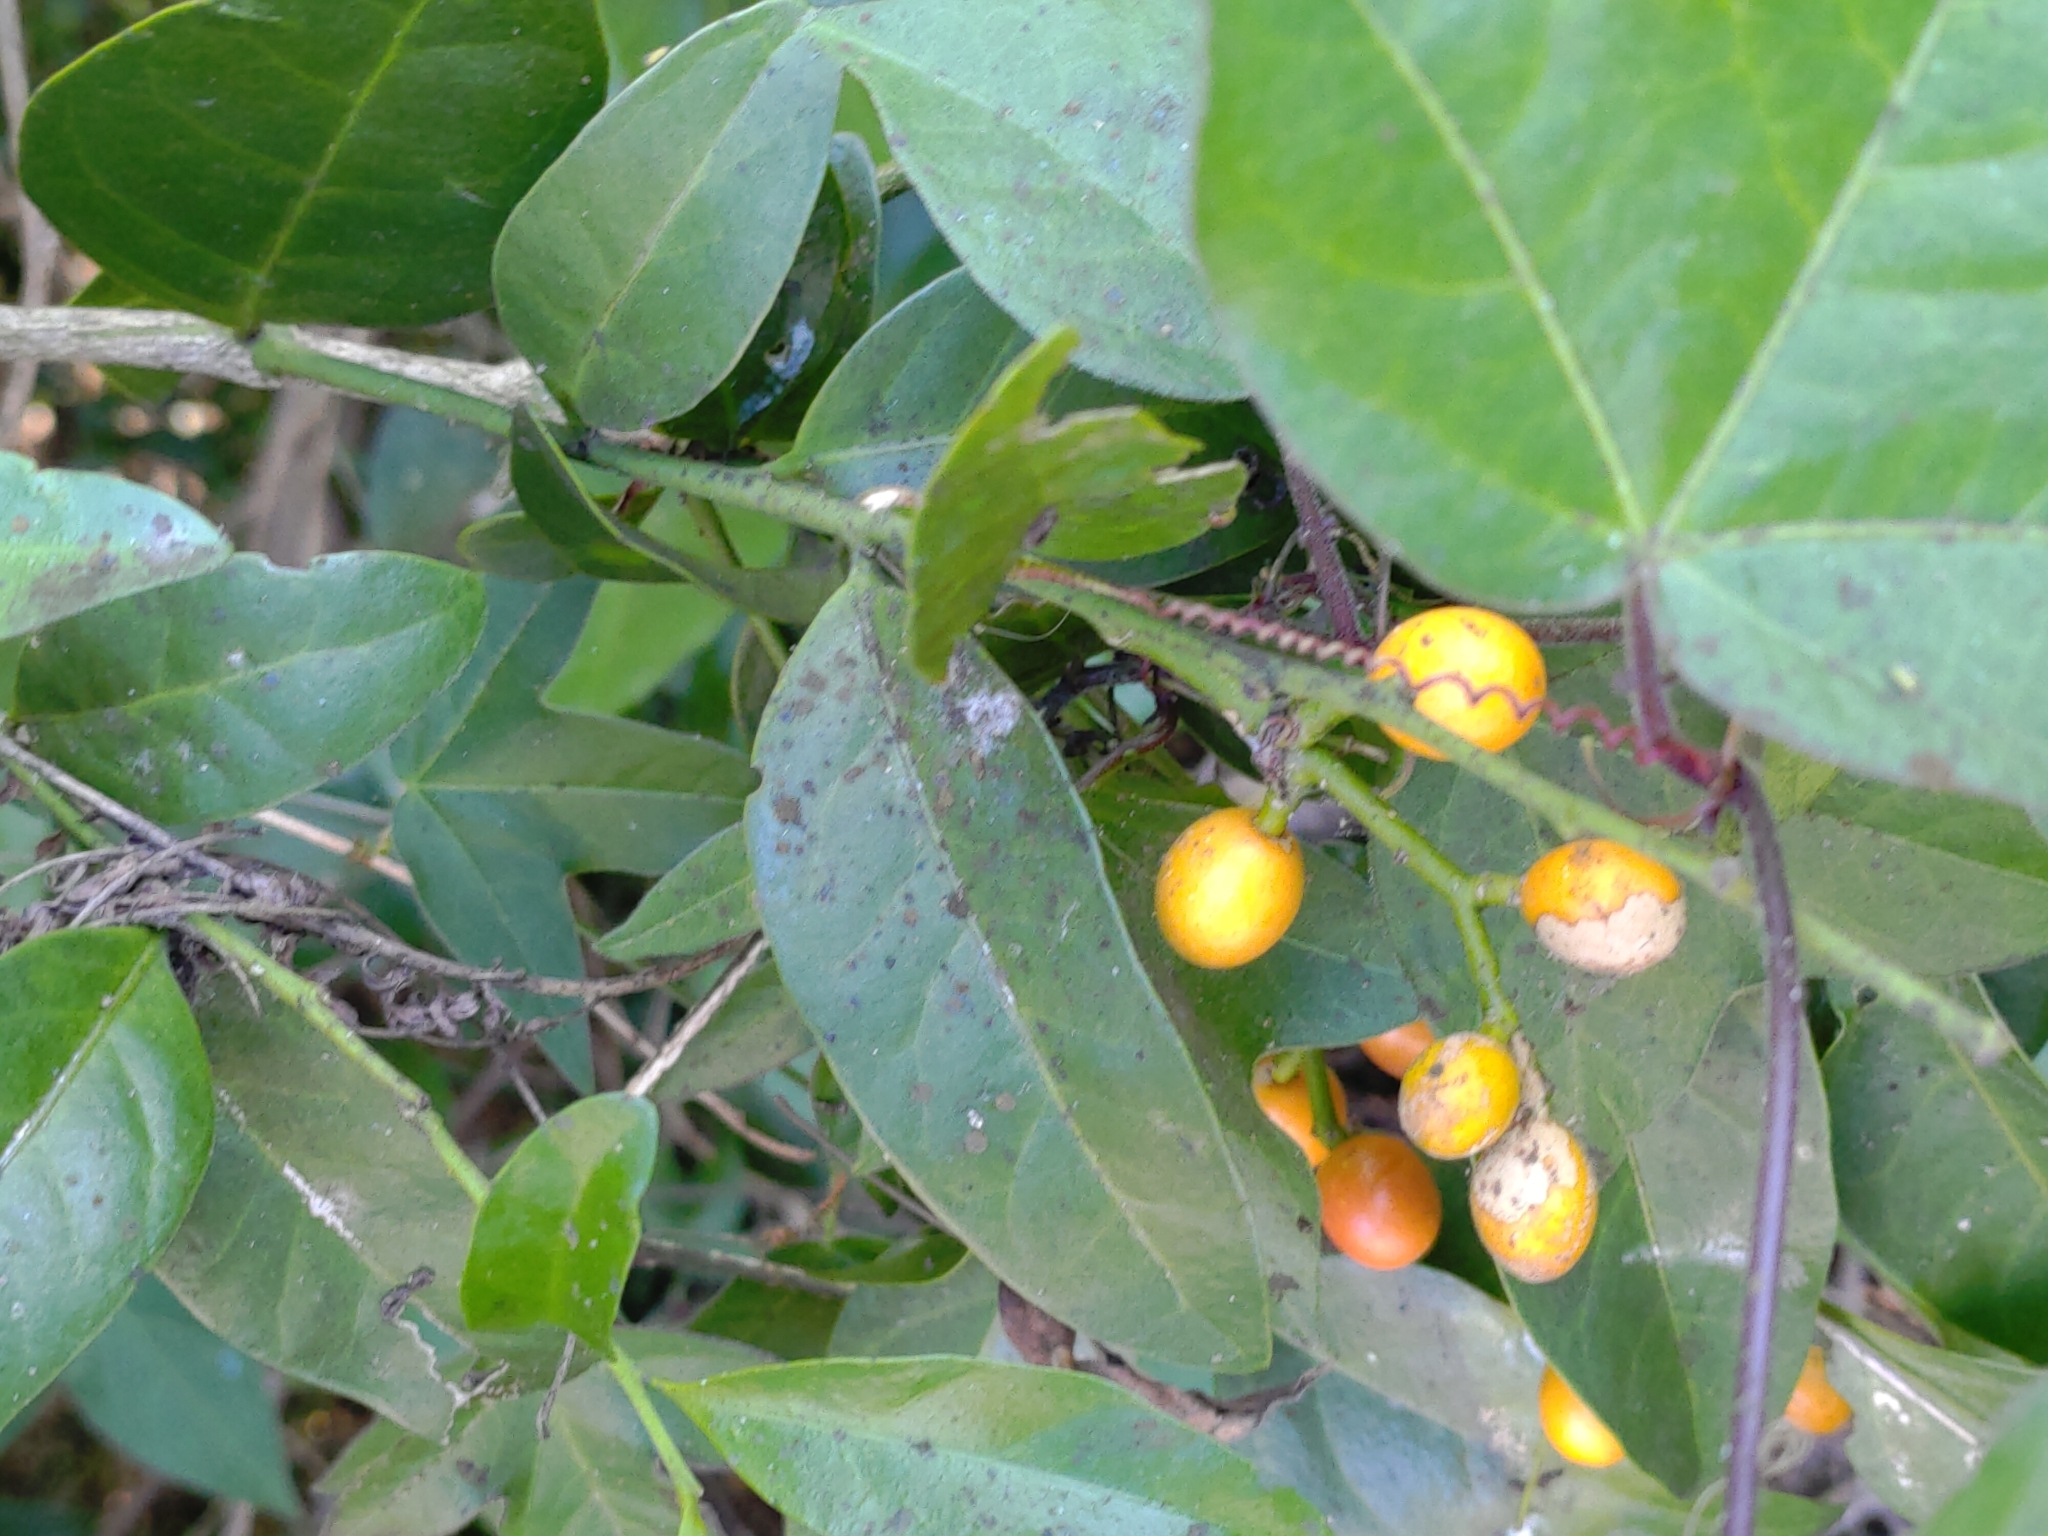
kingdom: Plantae
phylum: Tracheophyta
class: Magnoliopsida
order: Santalales
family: Opiliaceae
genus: Champereia
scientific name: Champereia manillana
